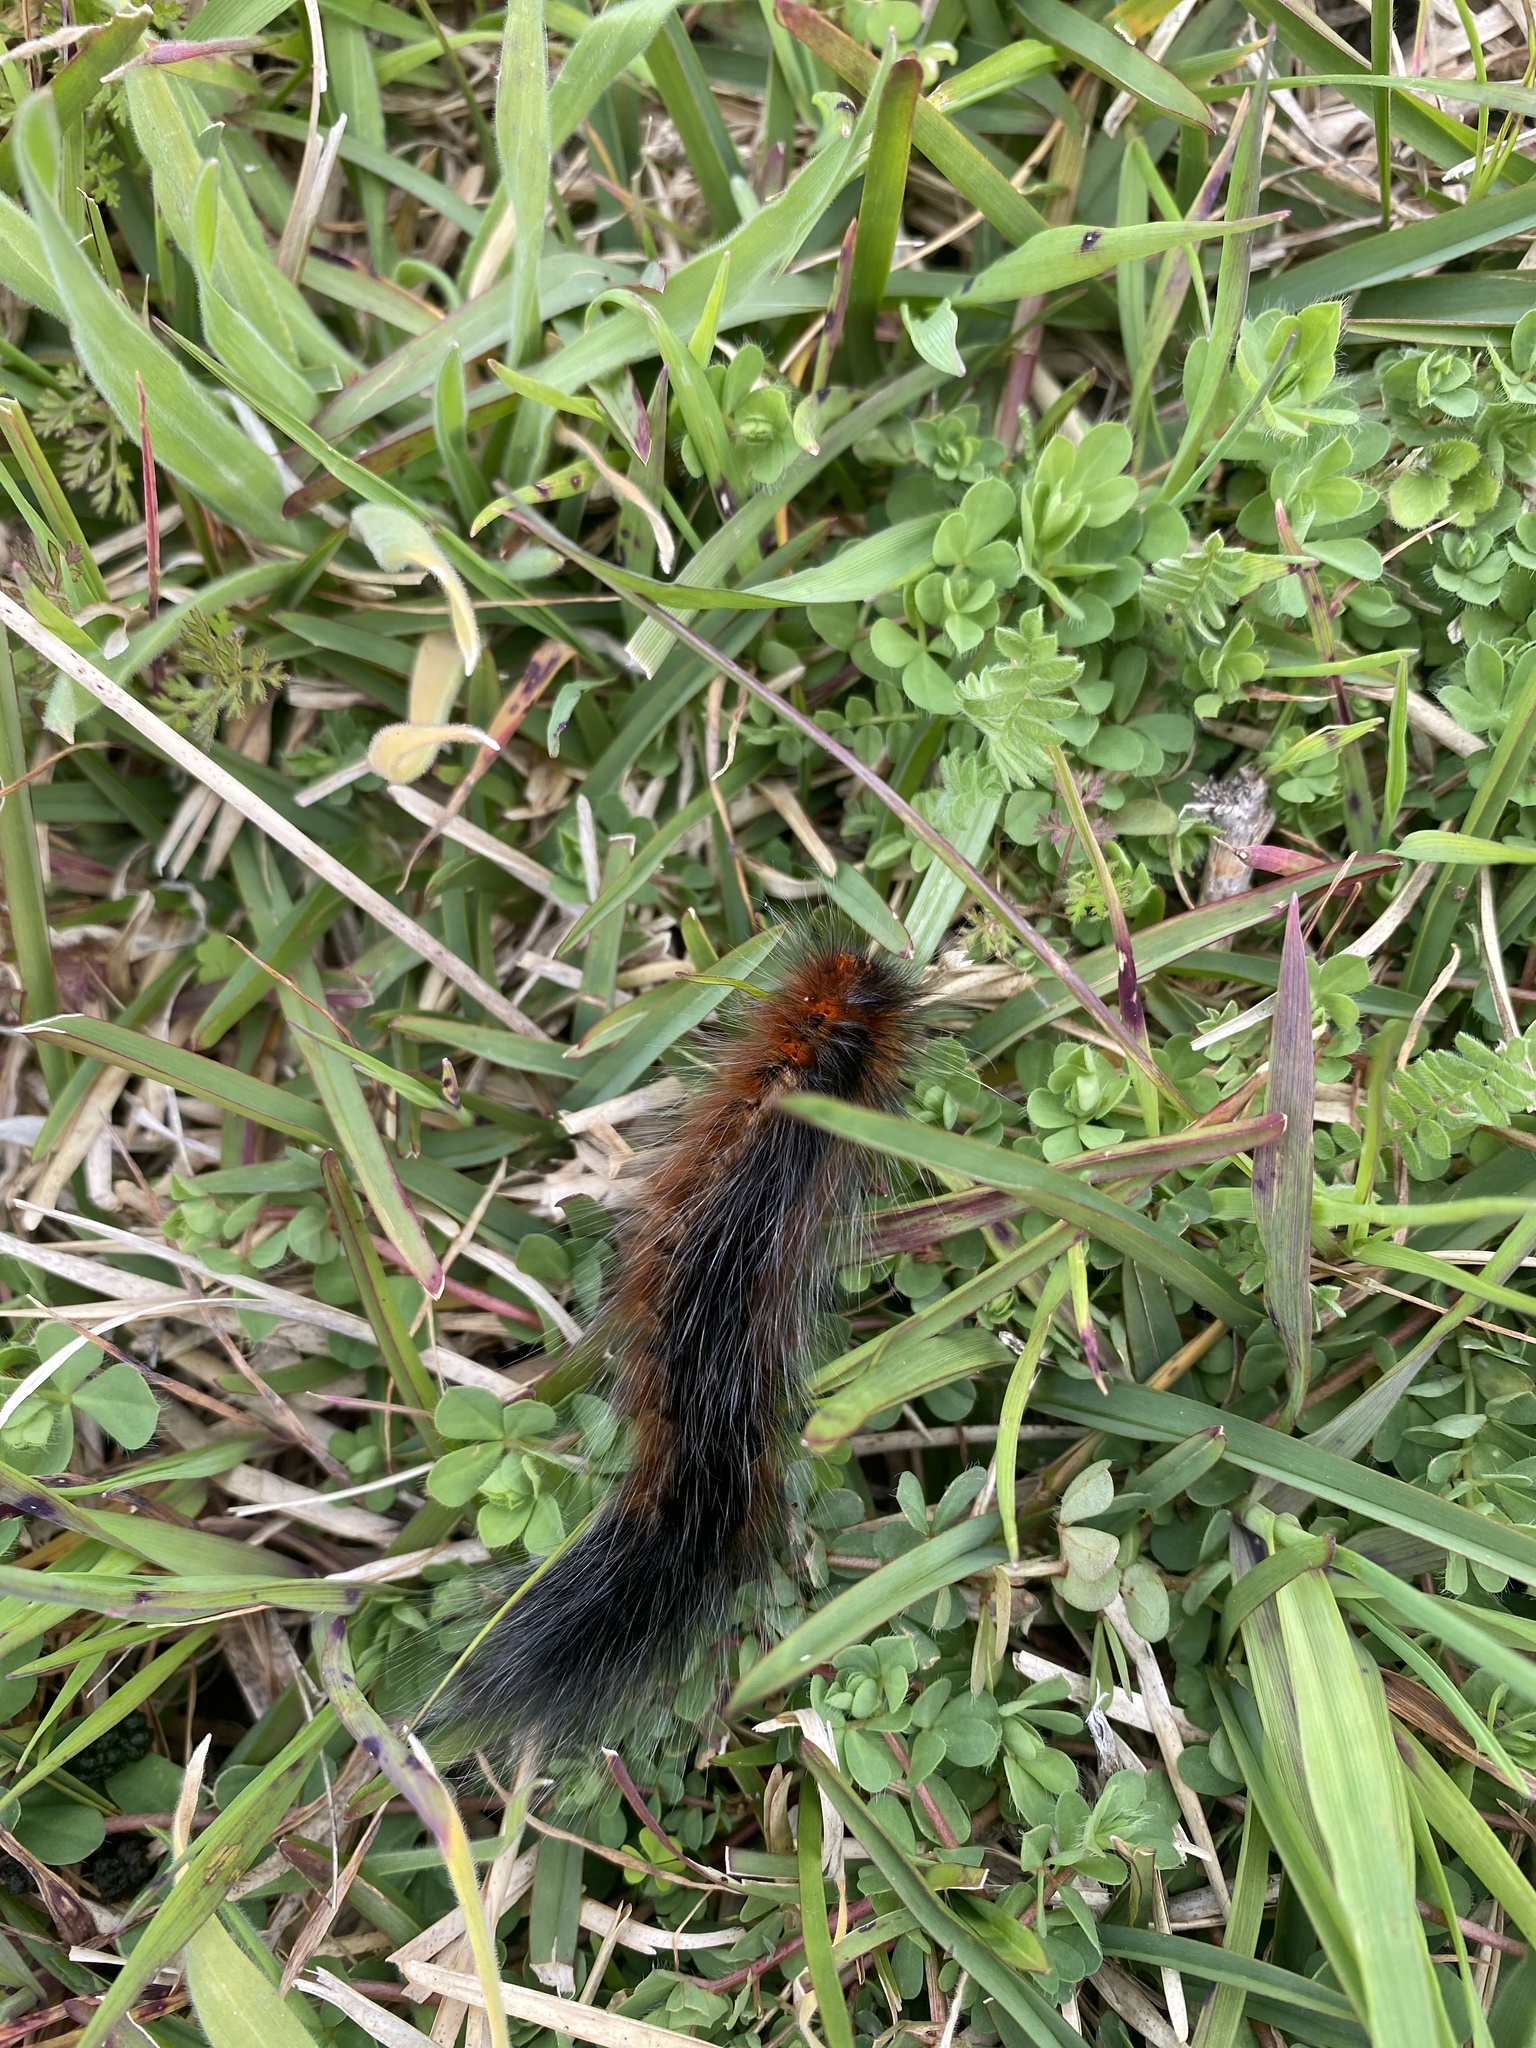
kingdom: Animalia
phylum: Arthropoda
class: Insecta
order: Lepidoptera
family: Lasiocampidae
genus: Mesocelis
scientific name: Mesocelis monticola
